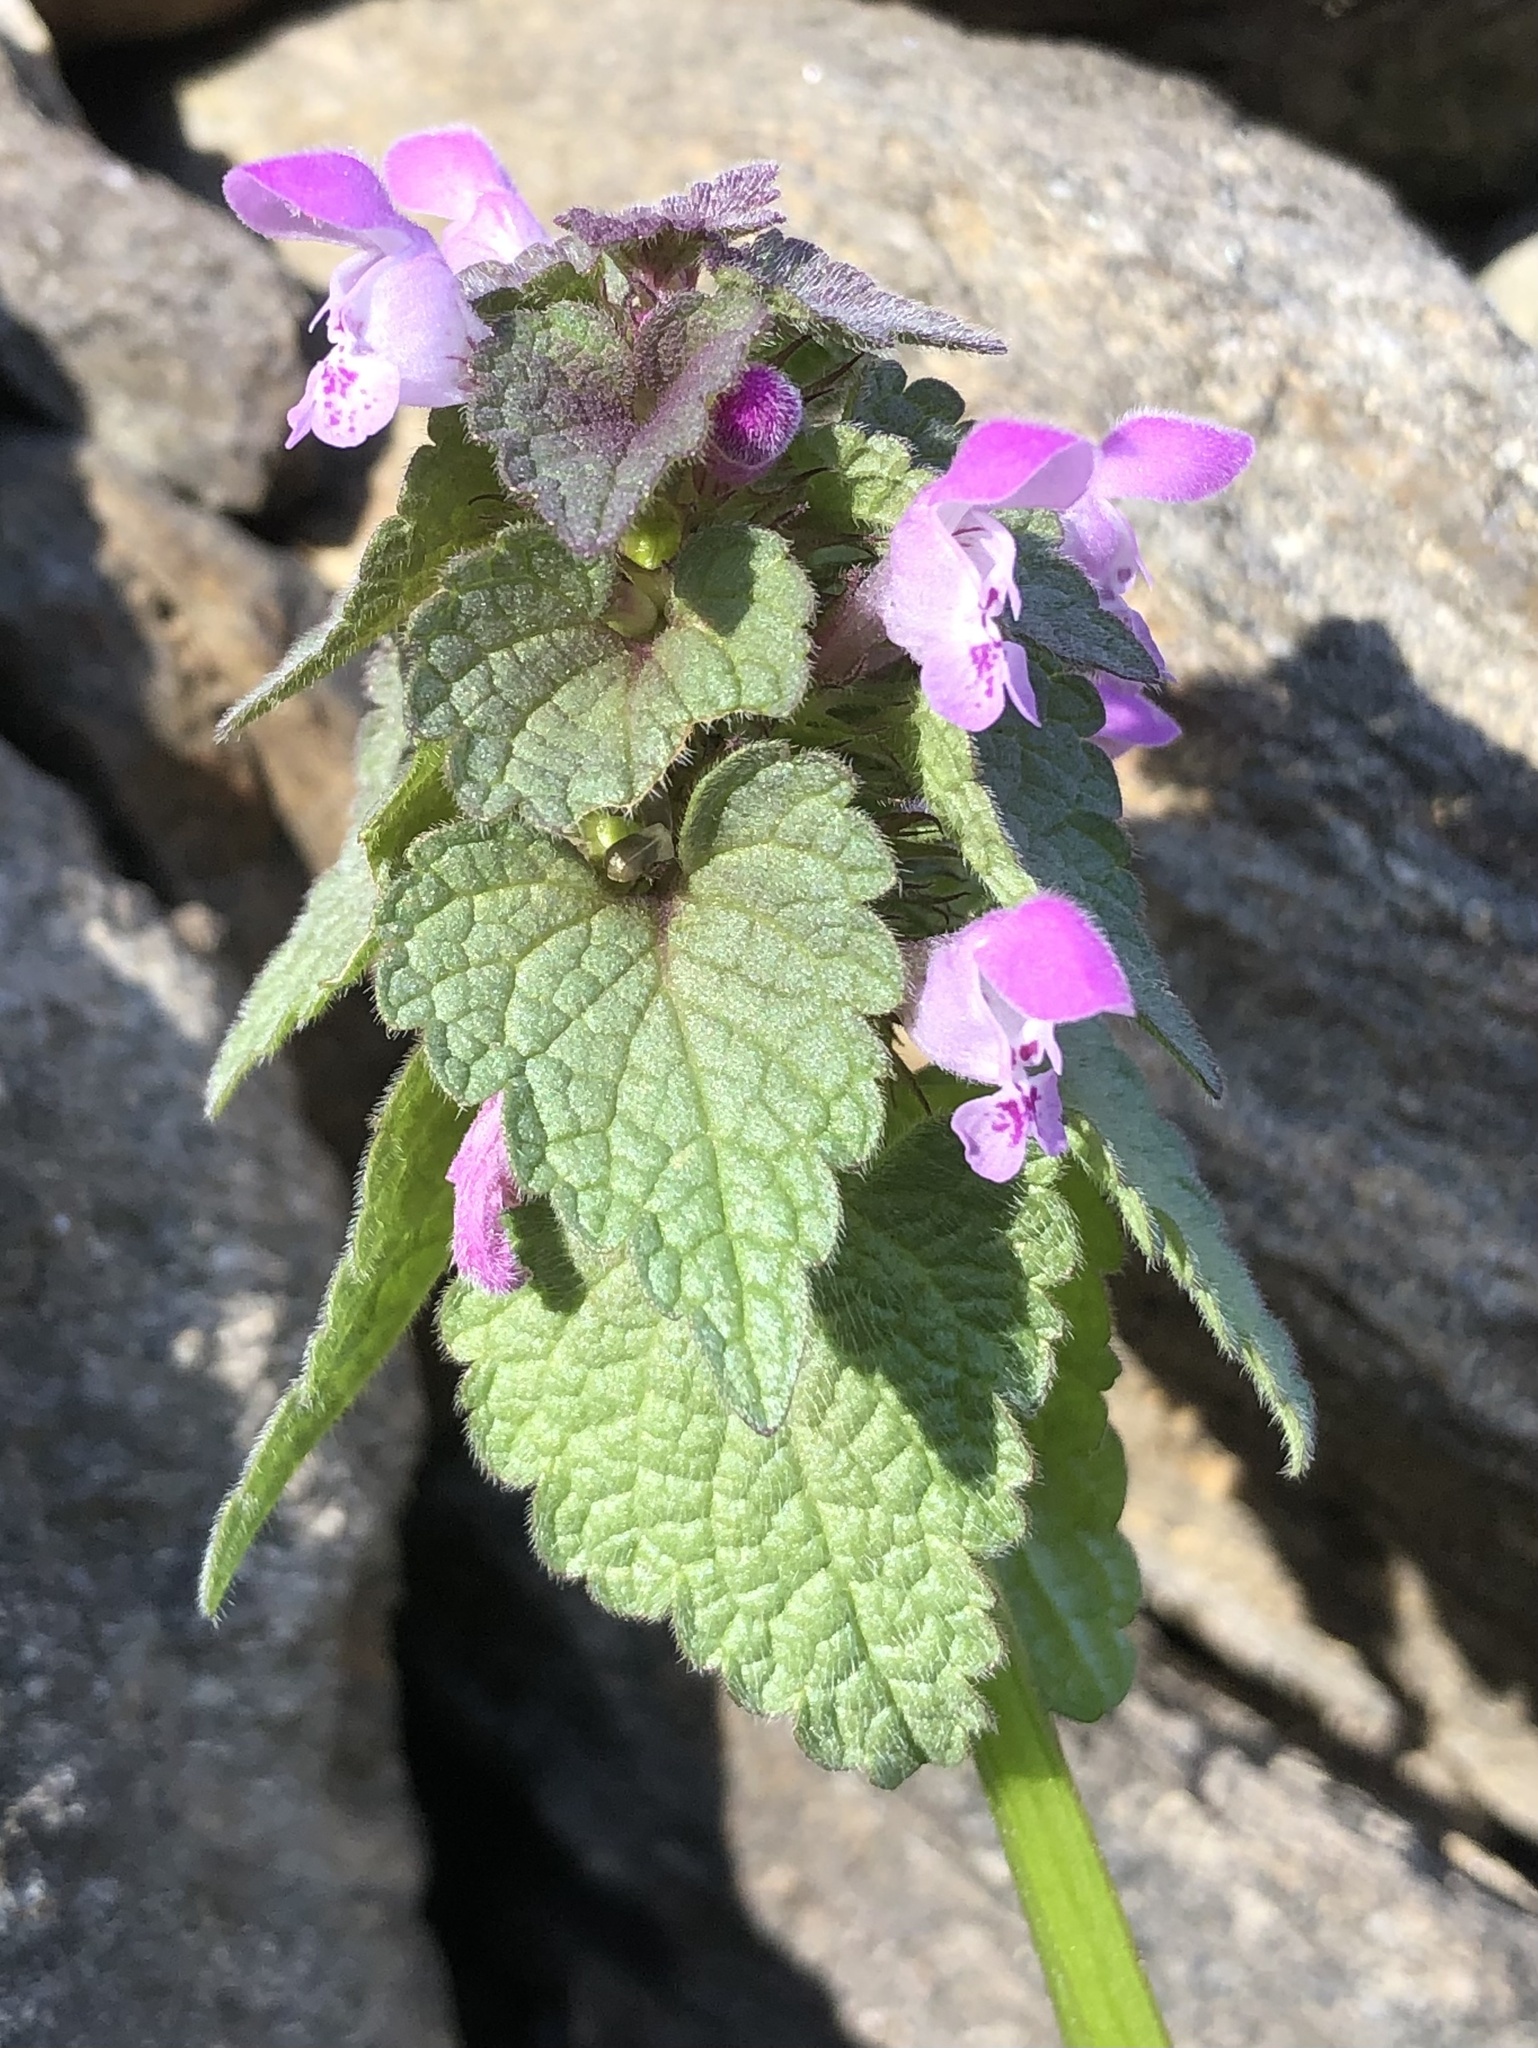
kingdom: Plantae
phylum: Tracheophyta
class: Magnoliopsida
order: Lamiales
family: Lamiaceae
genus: Lamium
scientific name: Lamium purpureum
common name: Red dead-nettle
